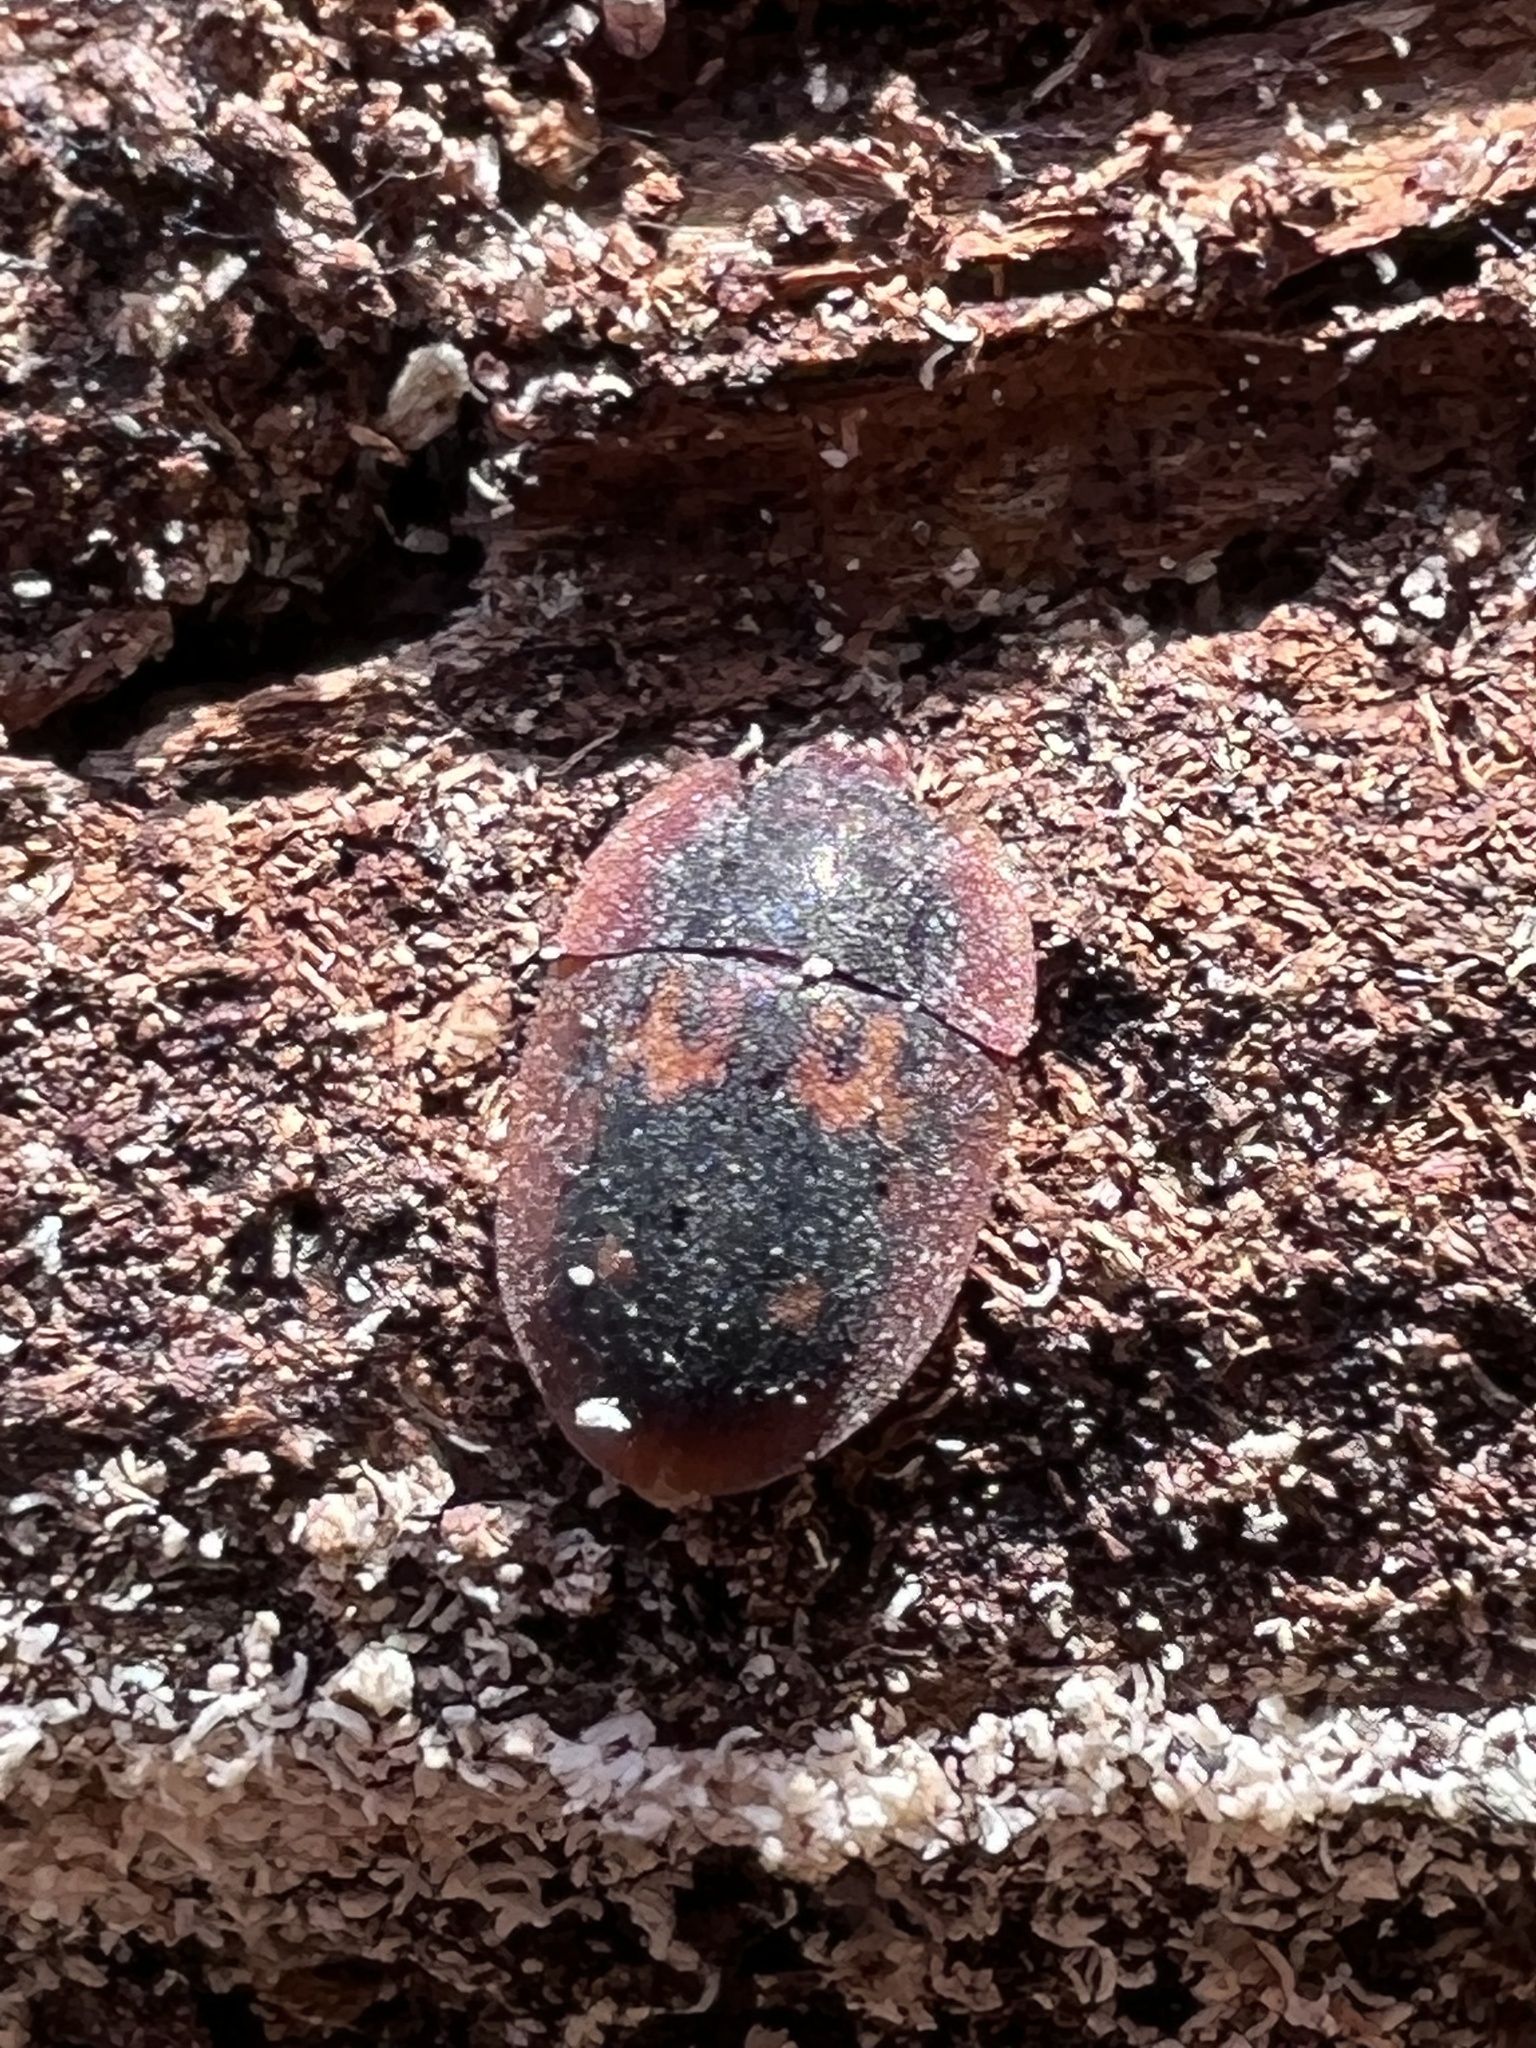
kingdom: Animalia
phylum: Arthropoda
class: Insecta
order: Coleoptera
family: Nitidulidae
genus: Prometopia
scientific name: Prometopia sexmaculata
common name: Six-spotted sap-feeding beetle
